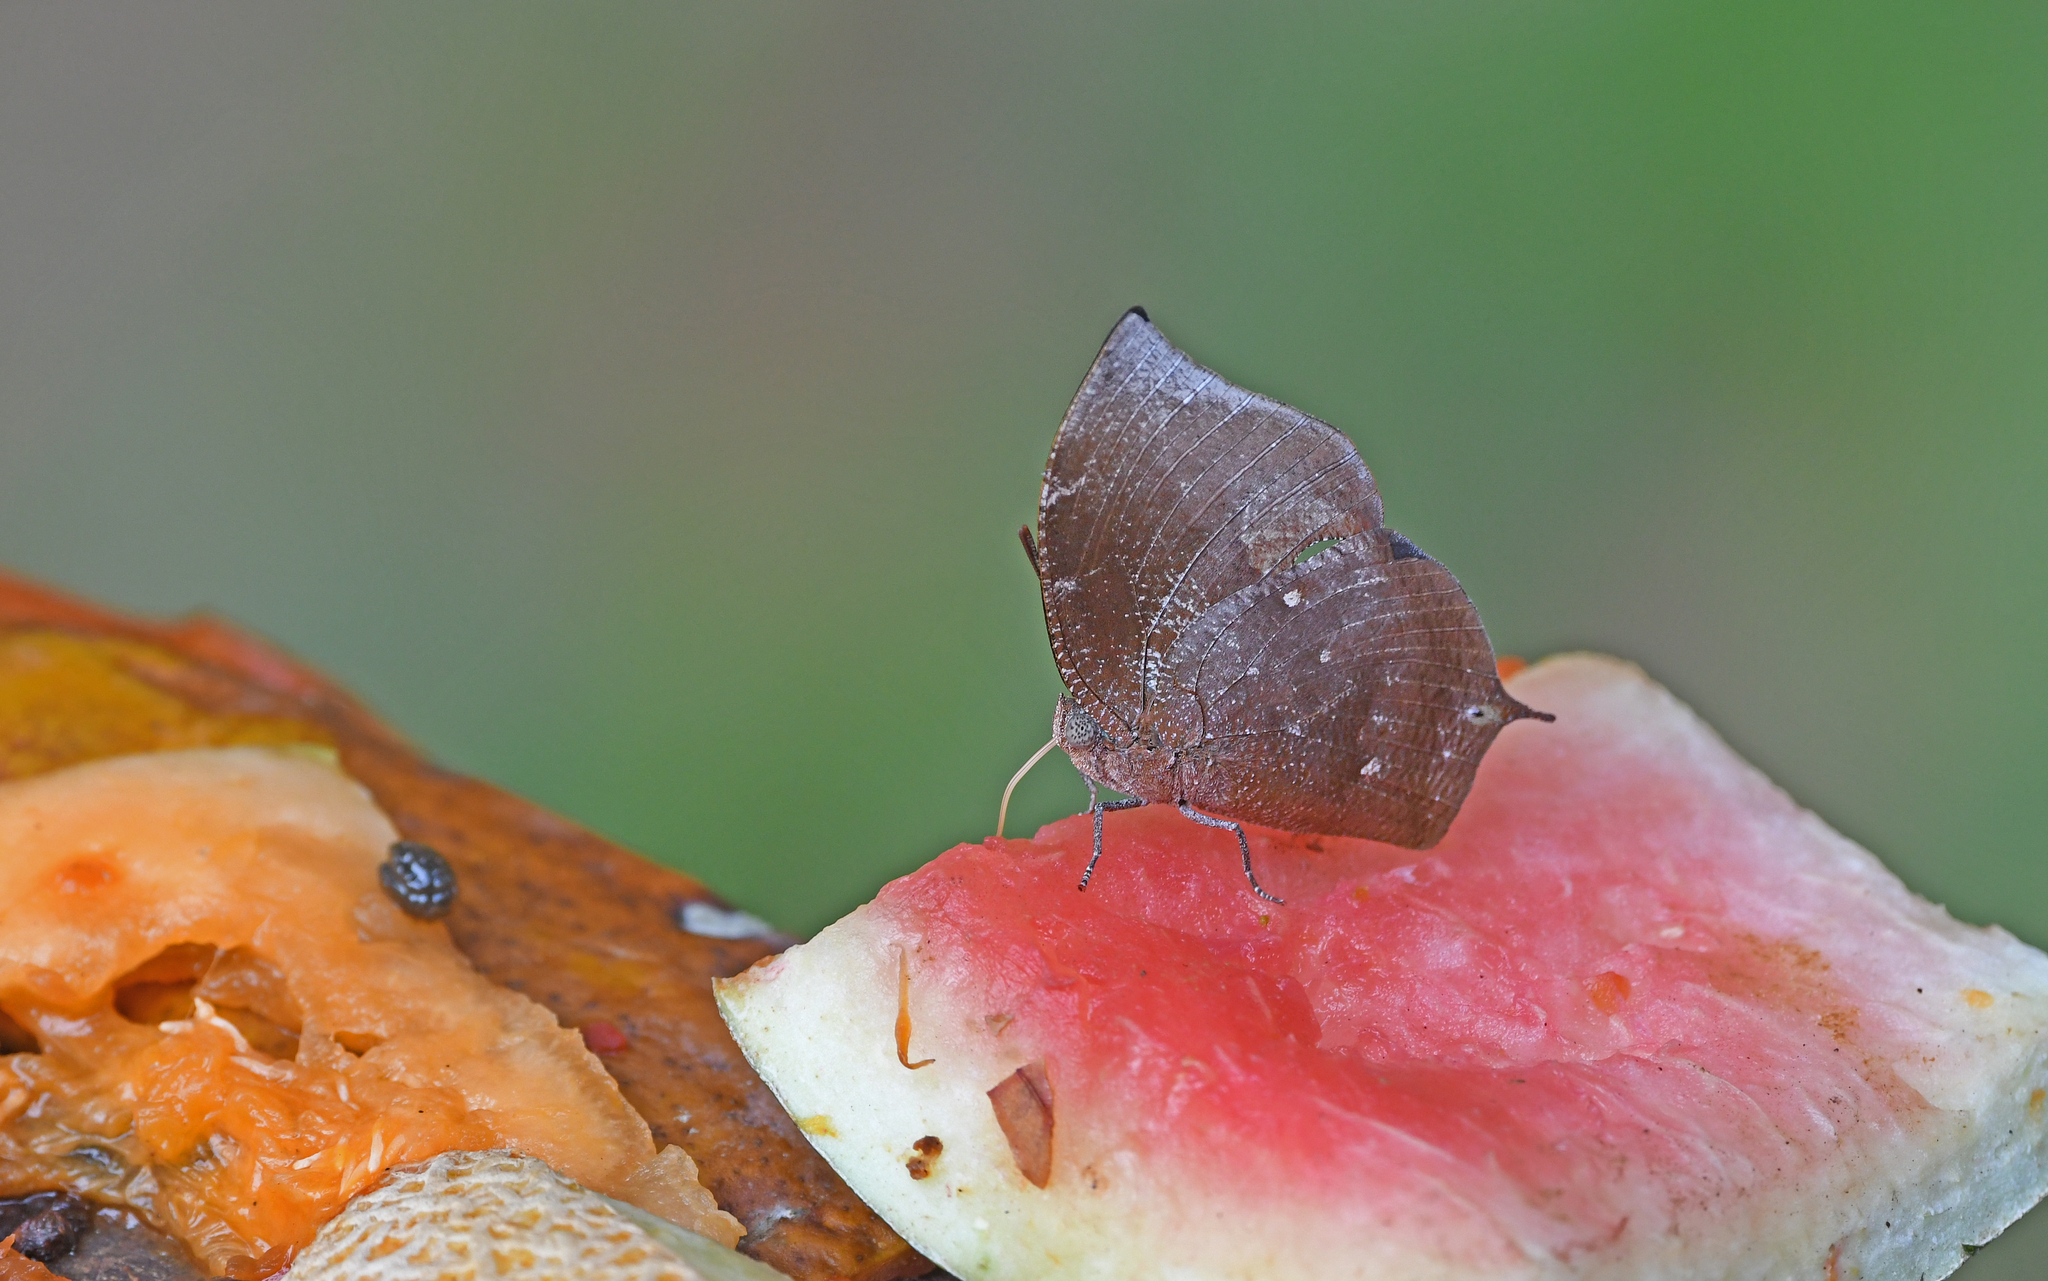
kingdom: Animalia
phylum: Arthropoda
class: Insecta
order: Lepidoptera
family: Nymphalidae
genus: Memphis
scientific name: Memphis moruus
